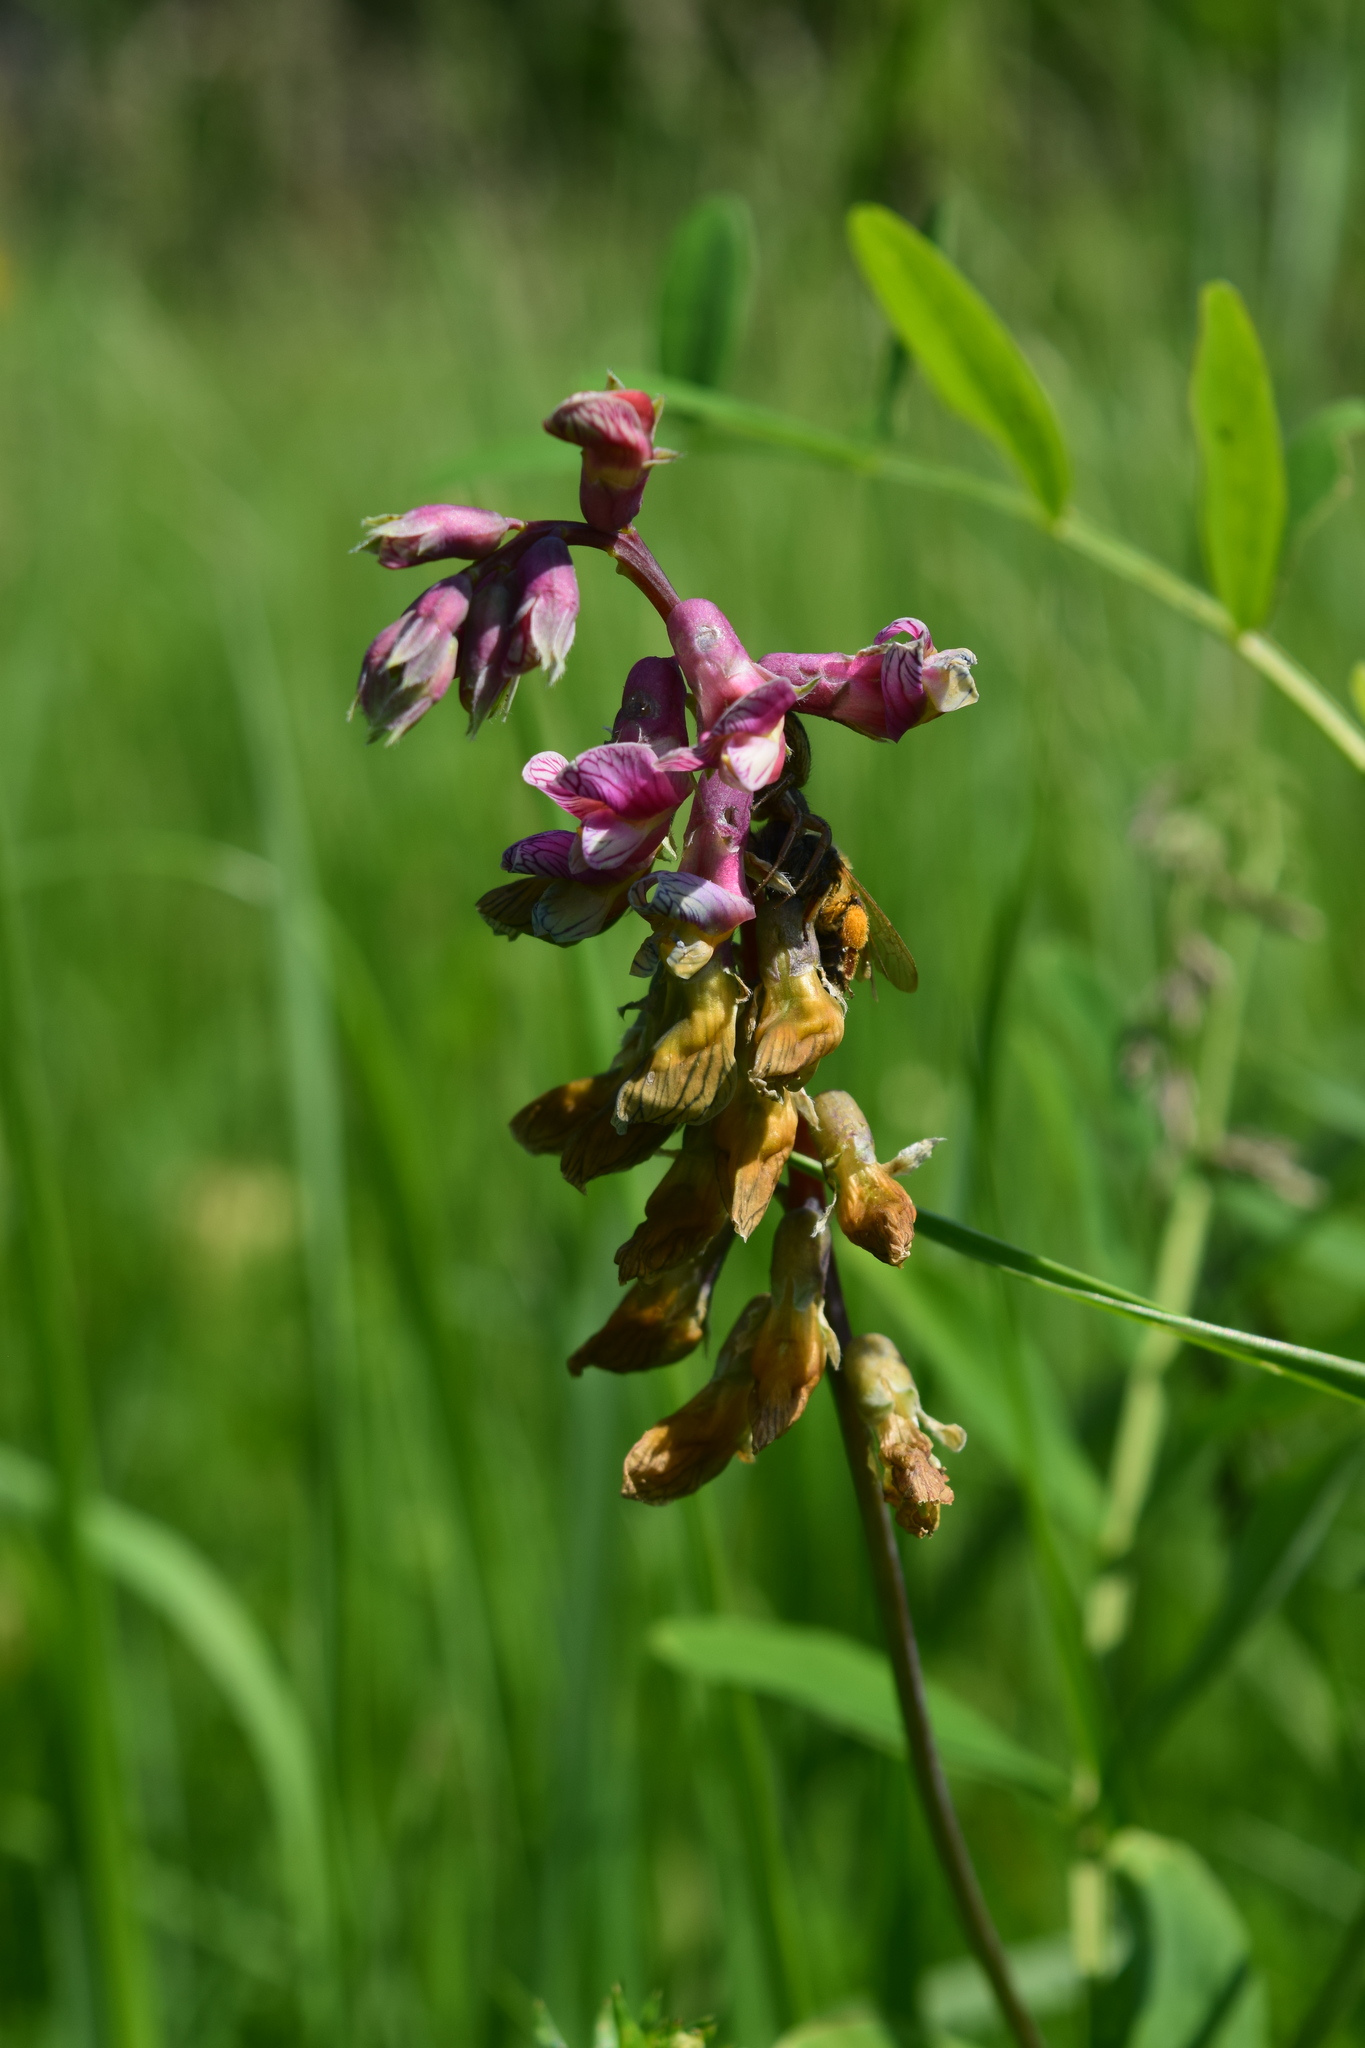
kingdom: Plantae
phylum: Tracheophyta
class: Magnoliopsida
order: Fabales
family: Fabaceae
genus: Lathyrus
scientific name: Lathyrus pisiformis
